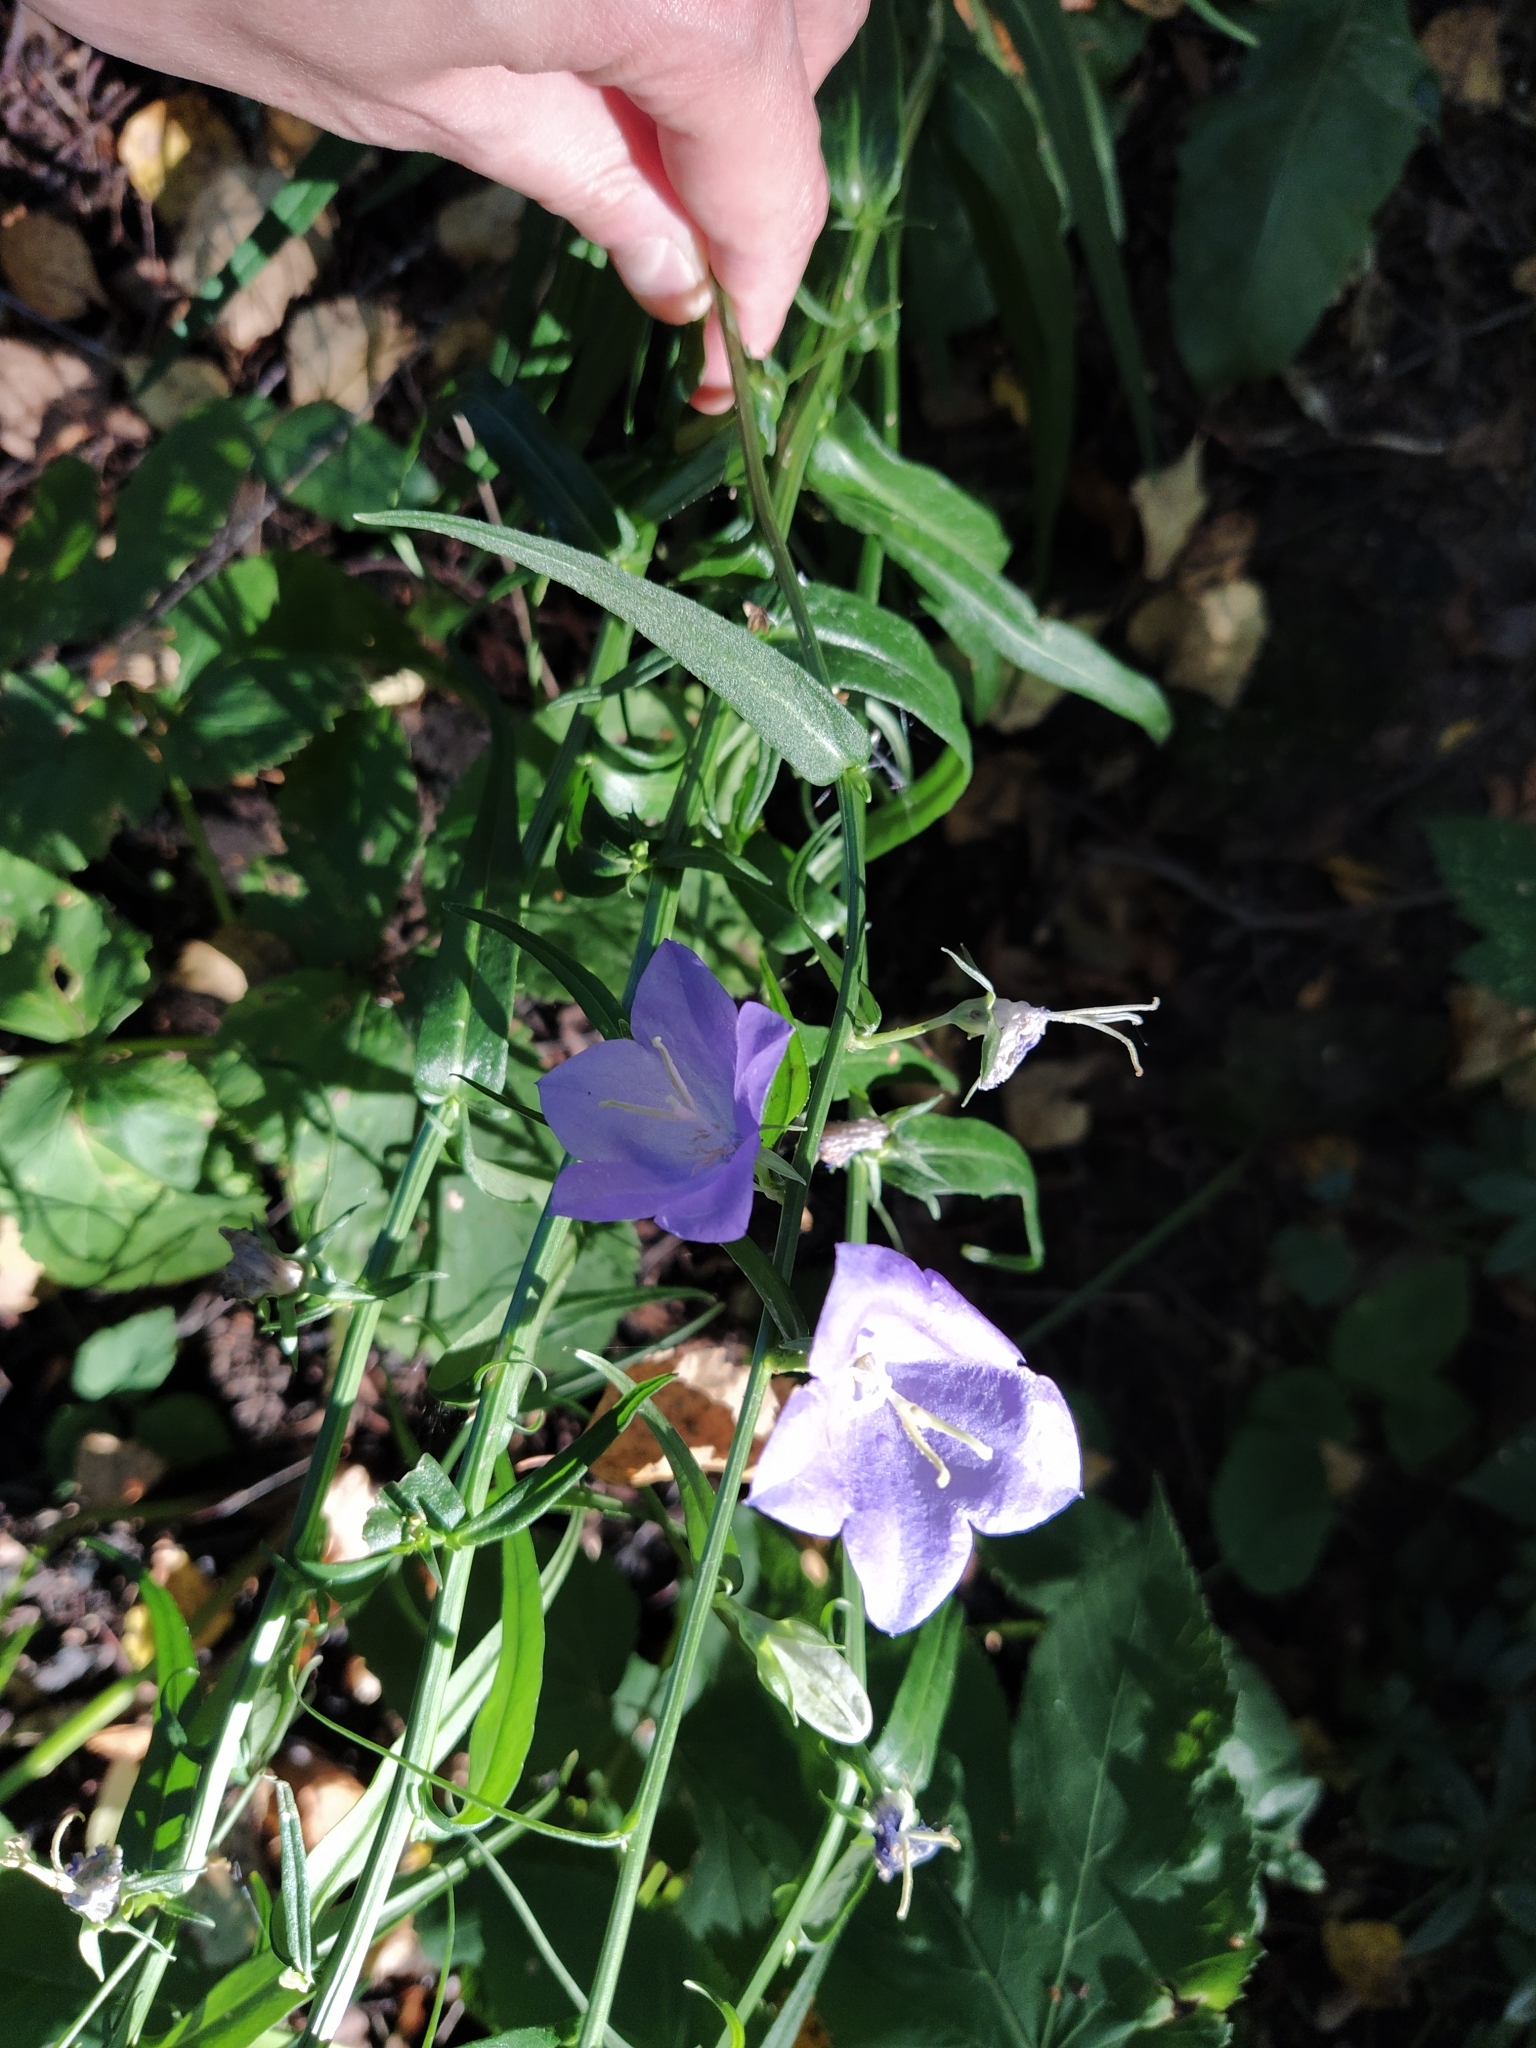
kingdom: Plantae
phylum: Tracheophyta
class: Magnoliopsida
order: Asterales
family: Campanulaceae
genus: Campanula
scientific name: Campanula persicifolia
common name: Peach-leaved bellflower
